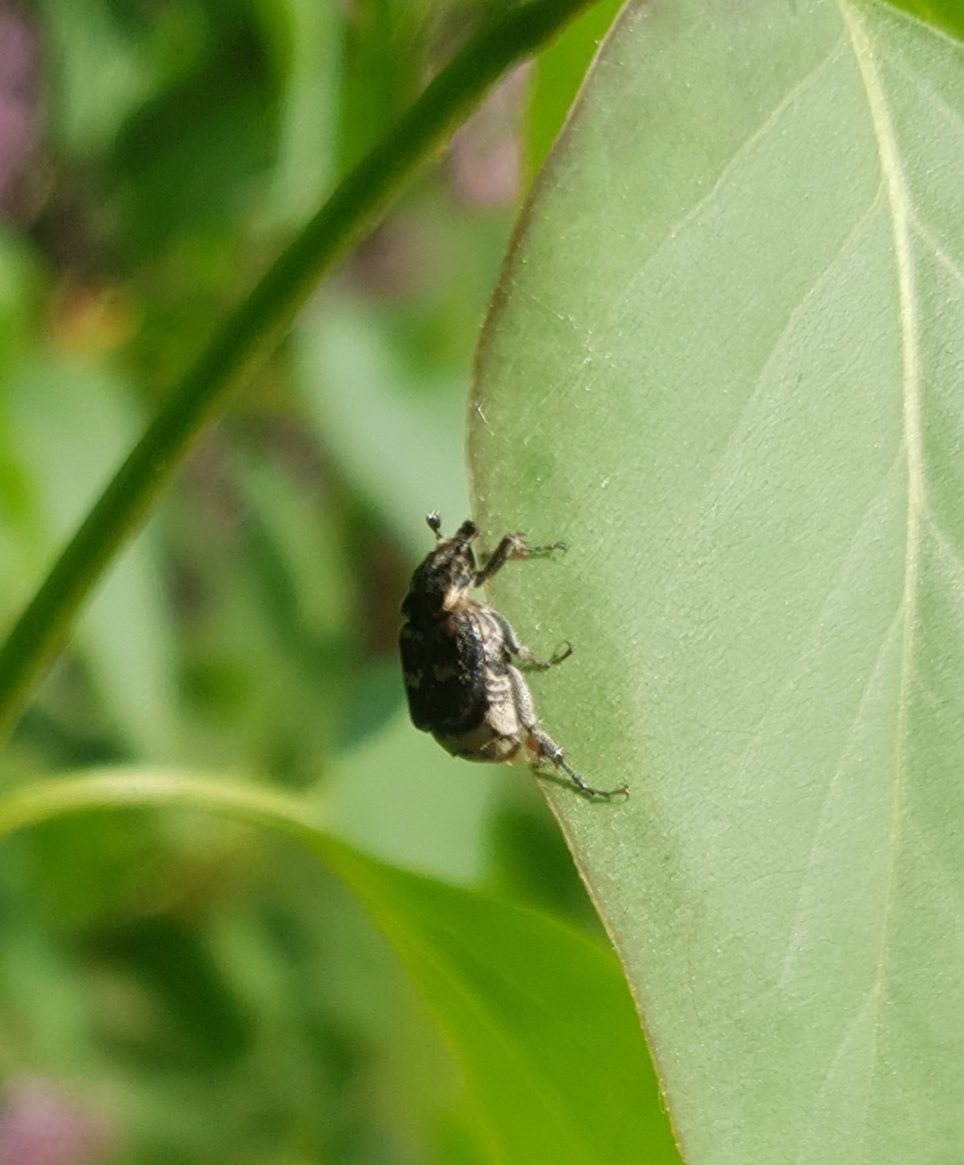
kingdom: Animalia
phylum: Arthropoda
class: Insecta
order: Coleoptera
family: Scarabaeidae
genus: Valgus
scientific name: Valgus hemipterus
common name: Bug flower chafer
